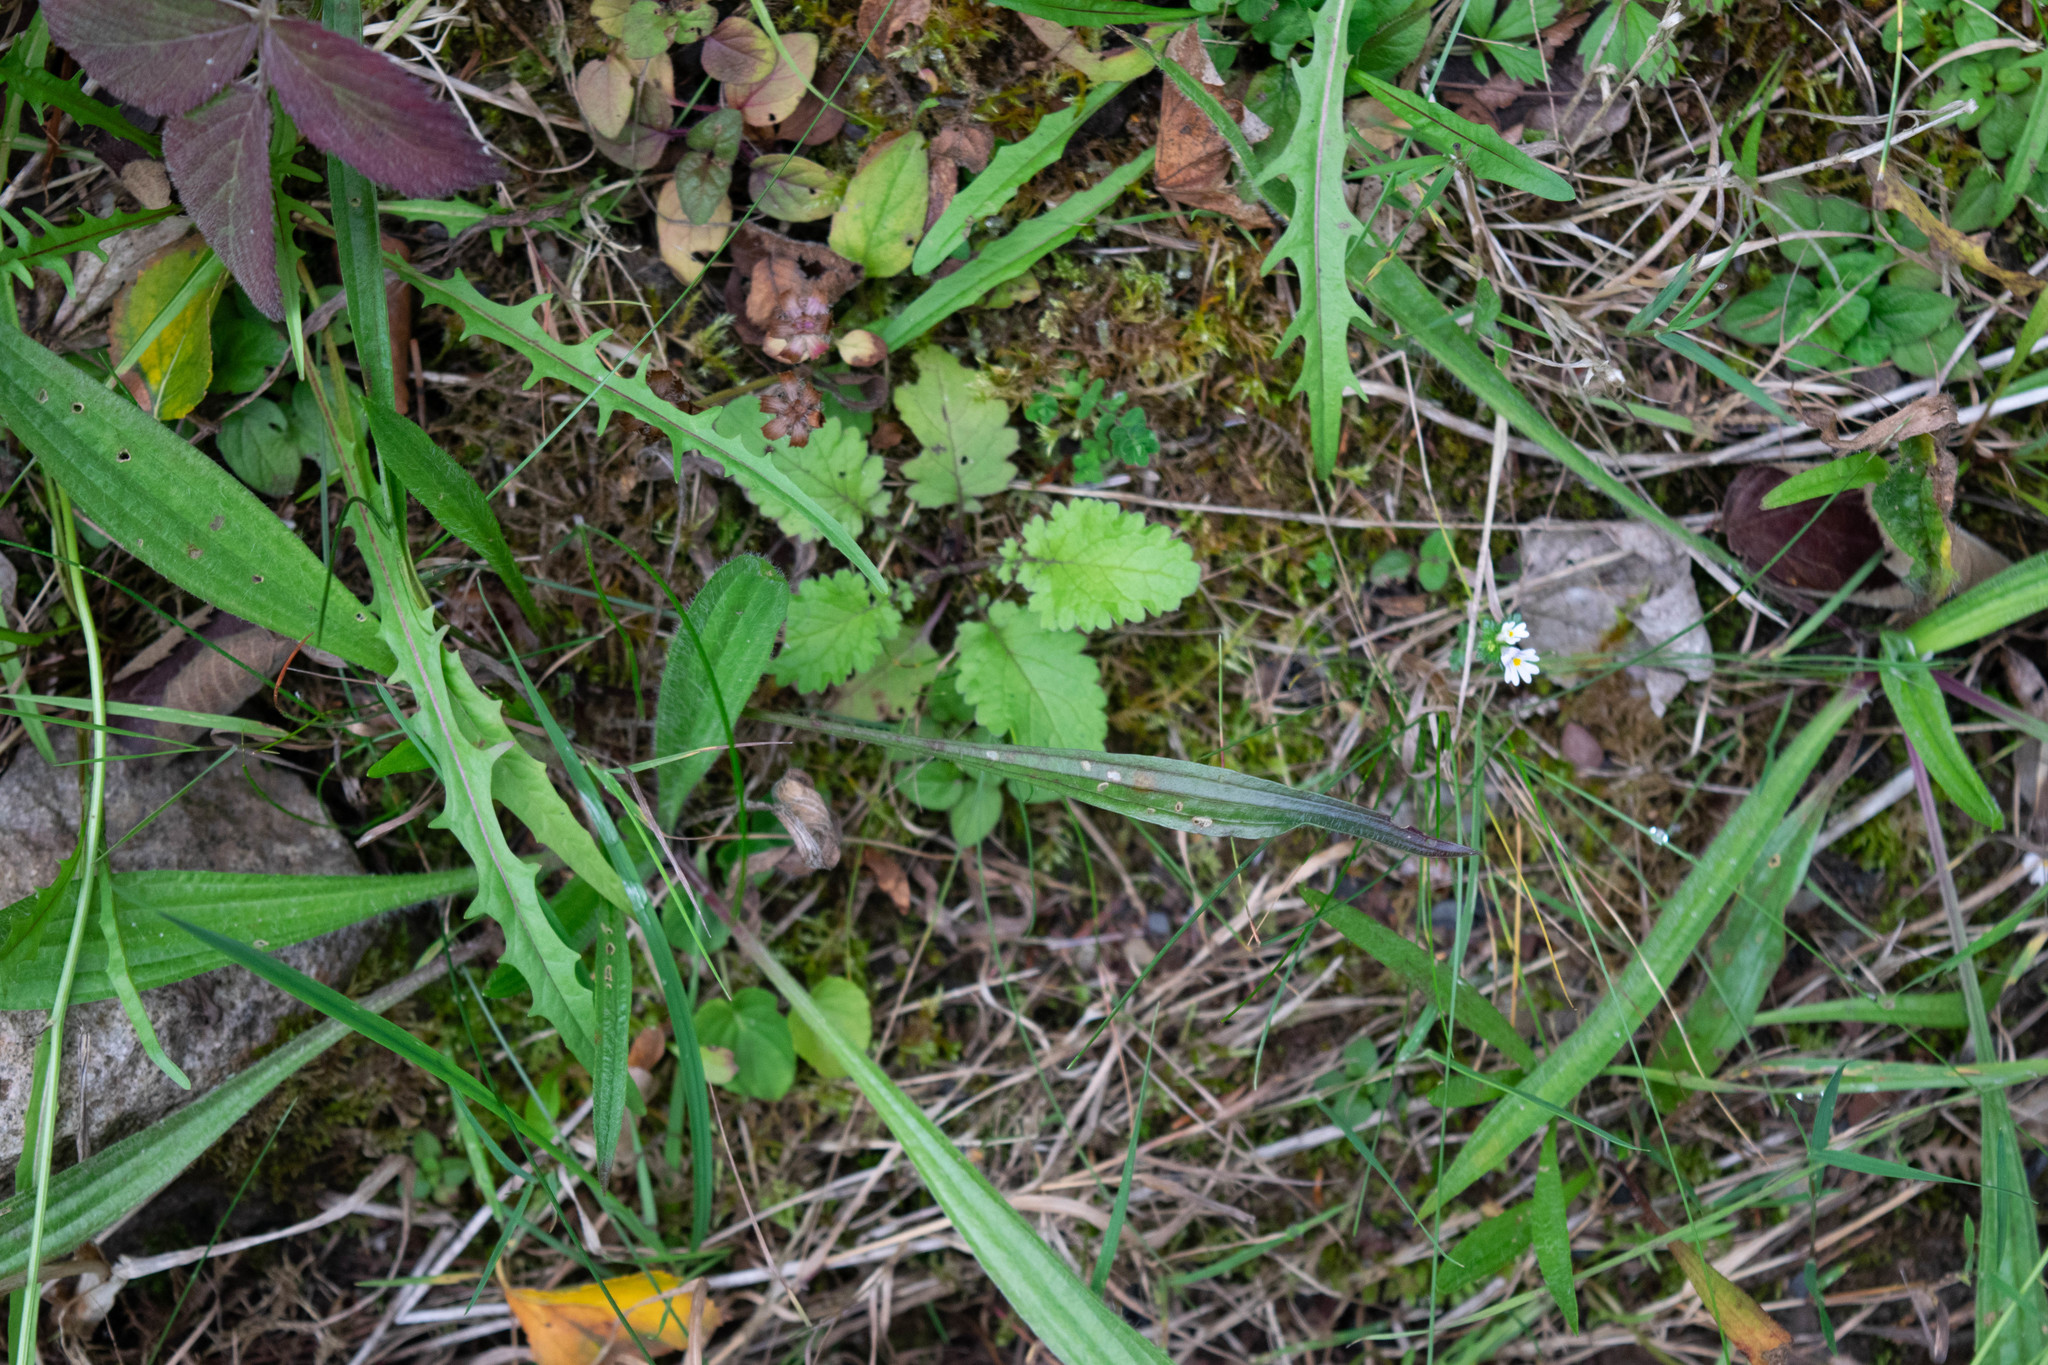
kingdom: Plantae
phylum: Tracheophyta
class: Magnoliopsida
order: Asterales
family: Asteraceae
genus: Jacobaea
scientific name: Jacobaea vulgaris
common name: Stinking willie
